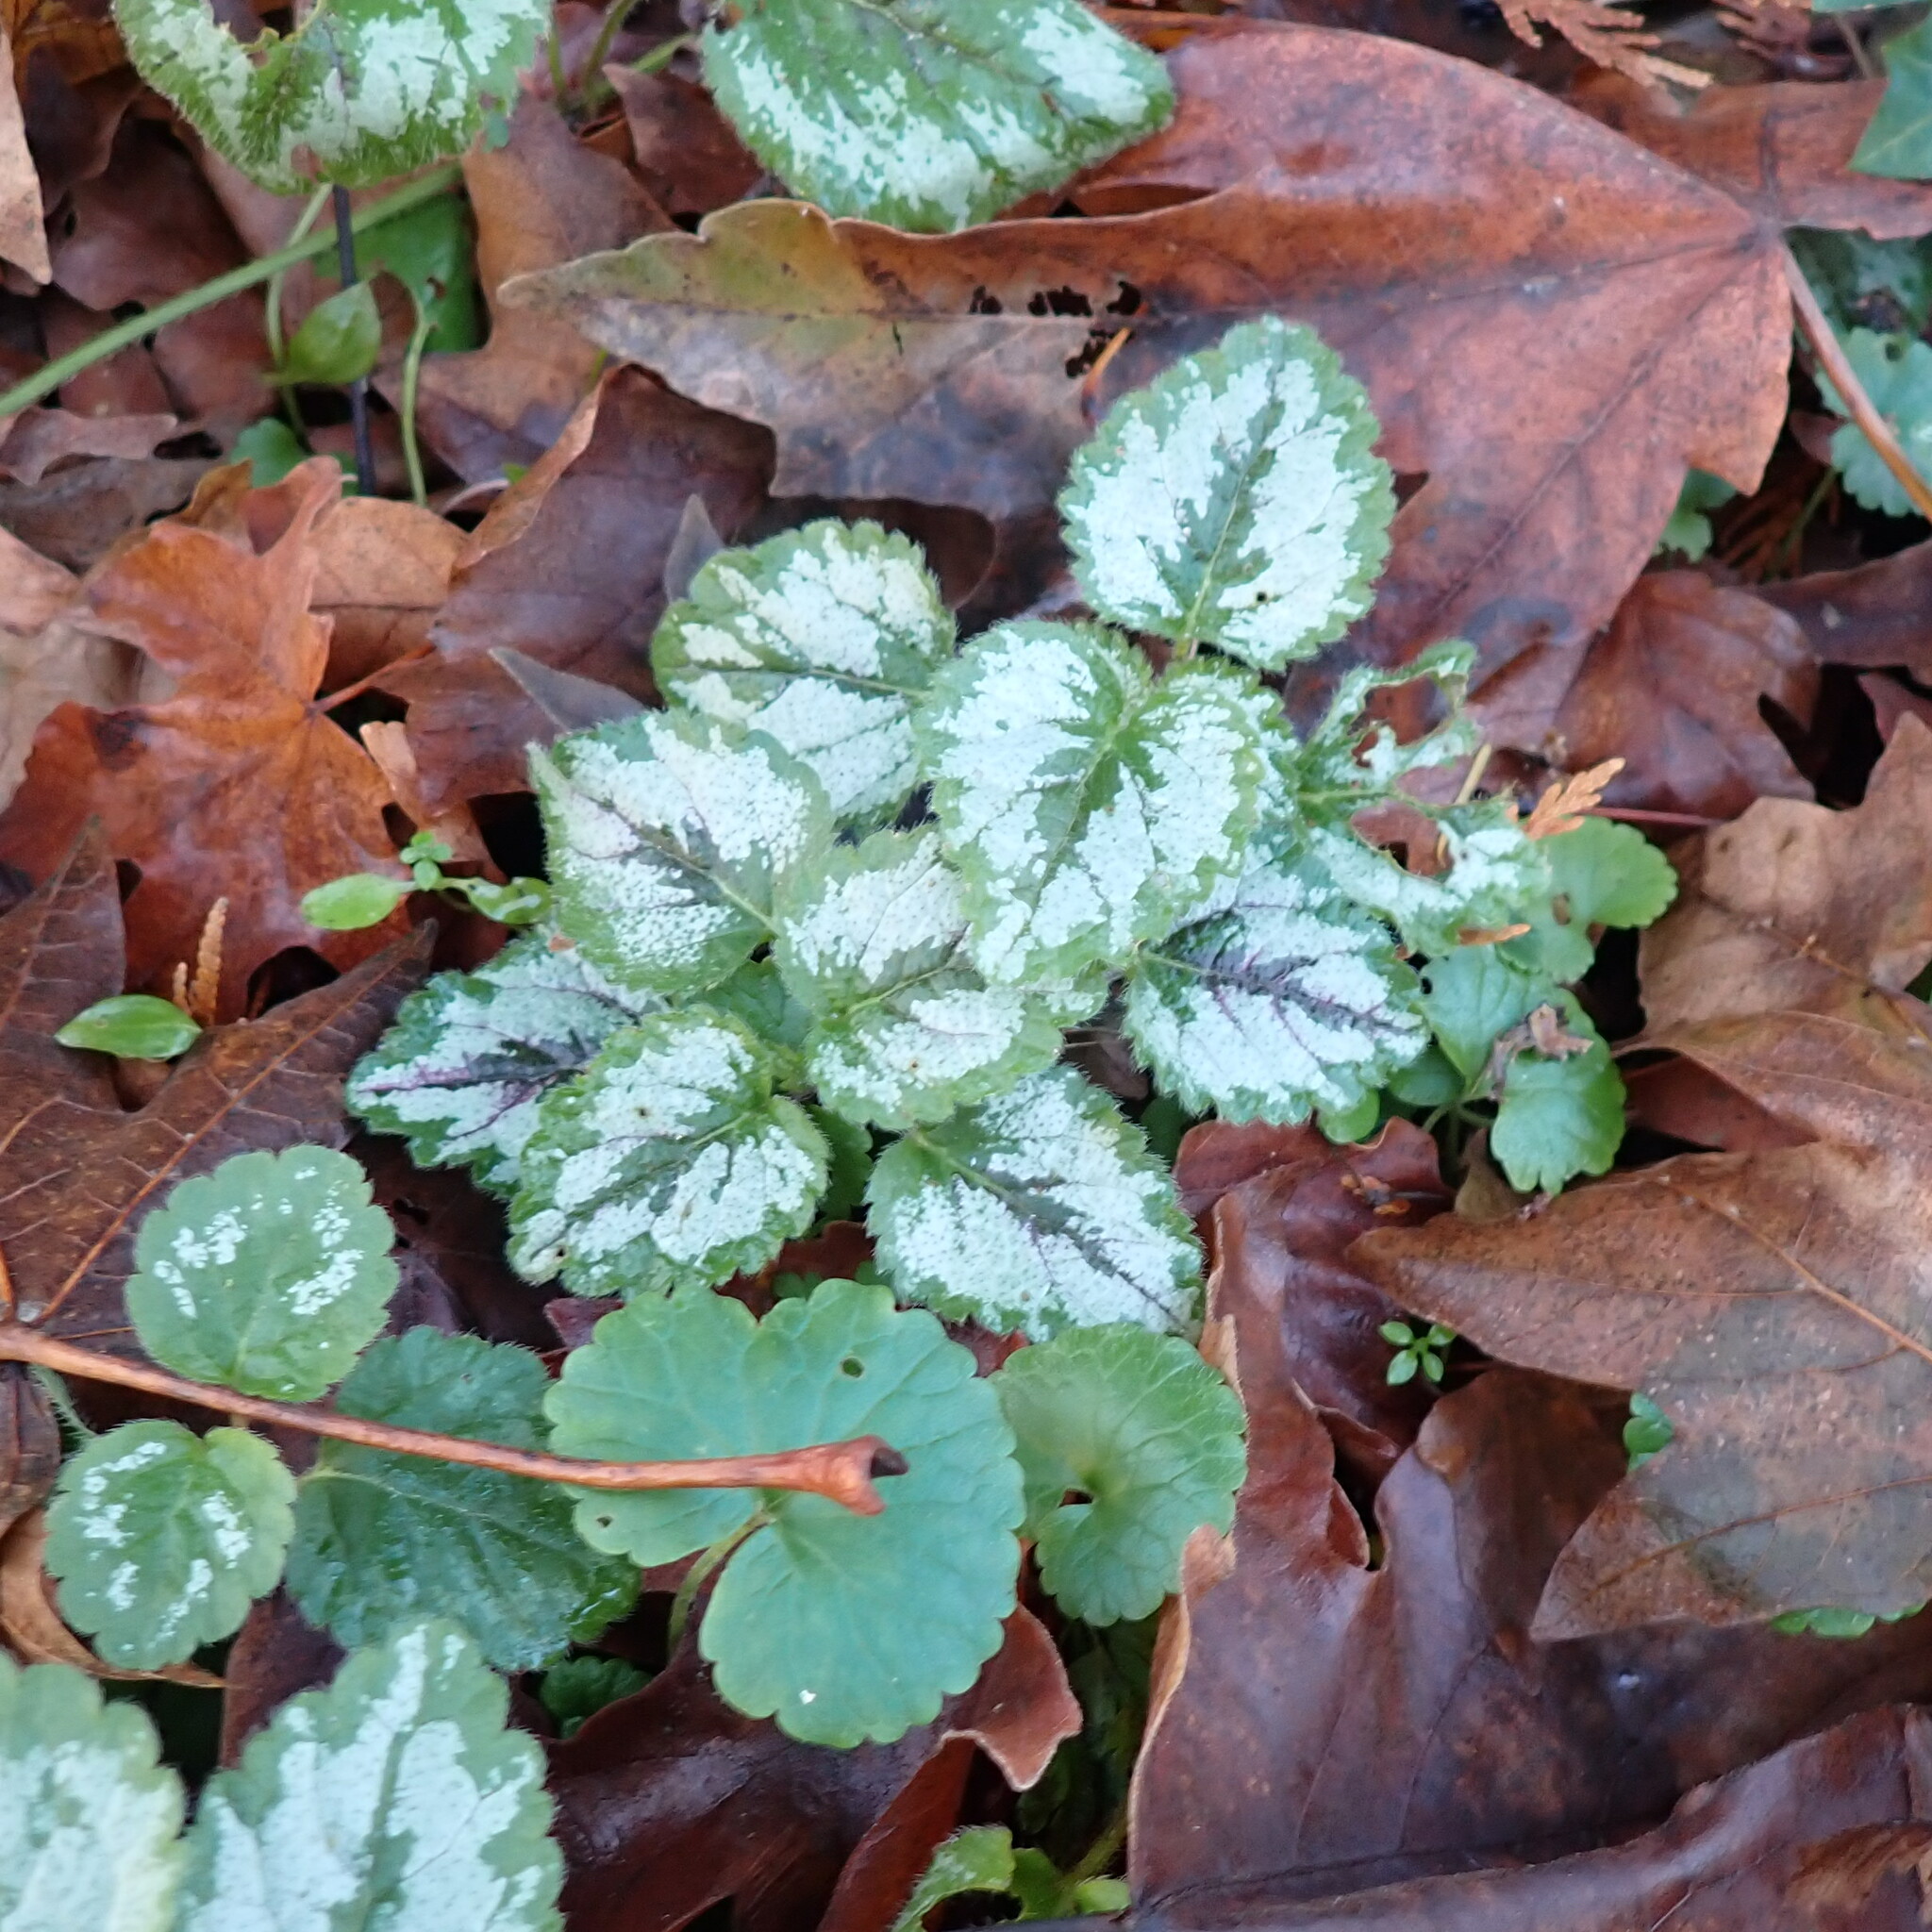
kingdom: Plantae
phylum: Tracheophyta
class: Magnoliopsida
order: Lamiales
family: Lamiaceae
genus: Lamium
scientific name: Lamium galeobdolon
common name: Yellow archangel
